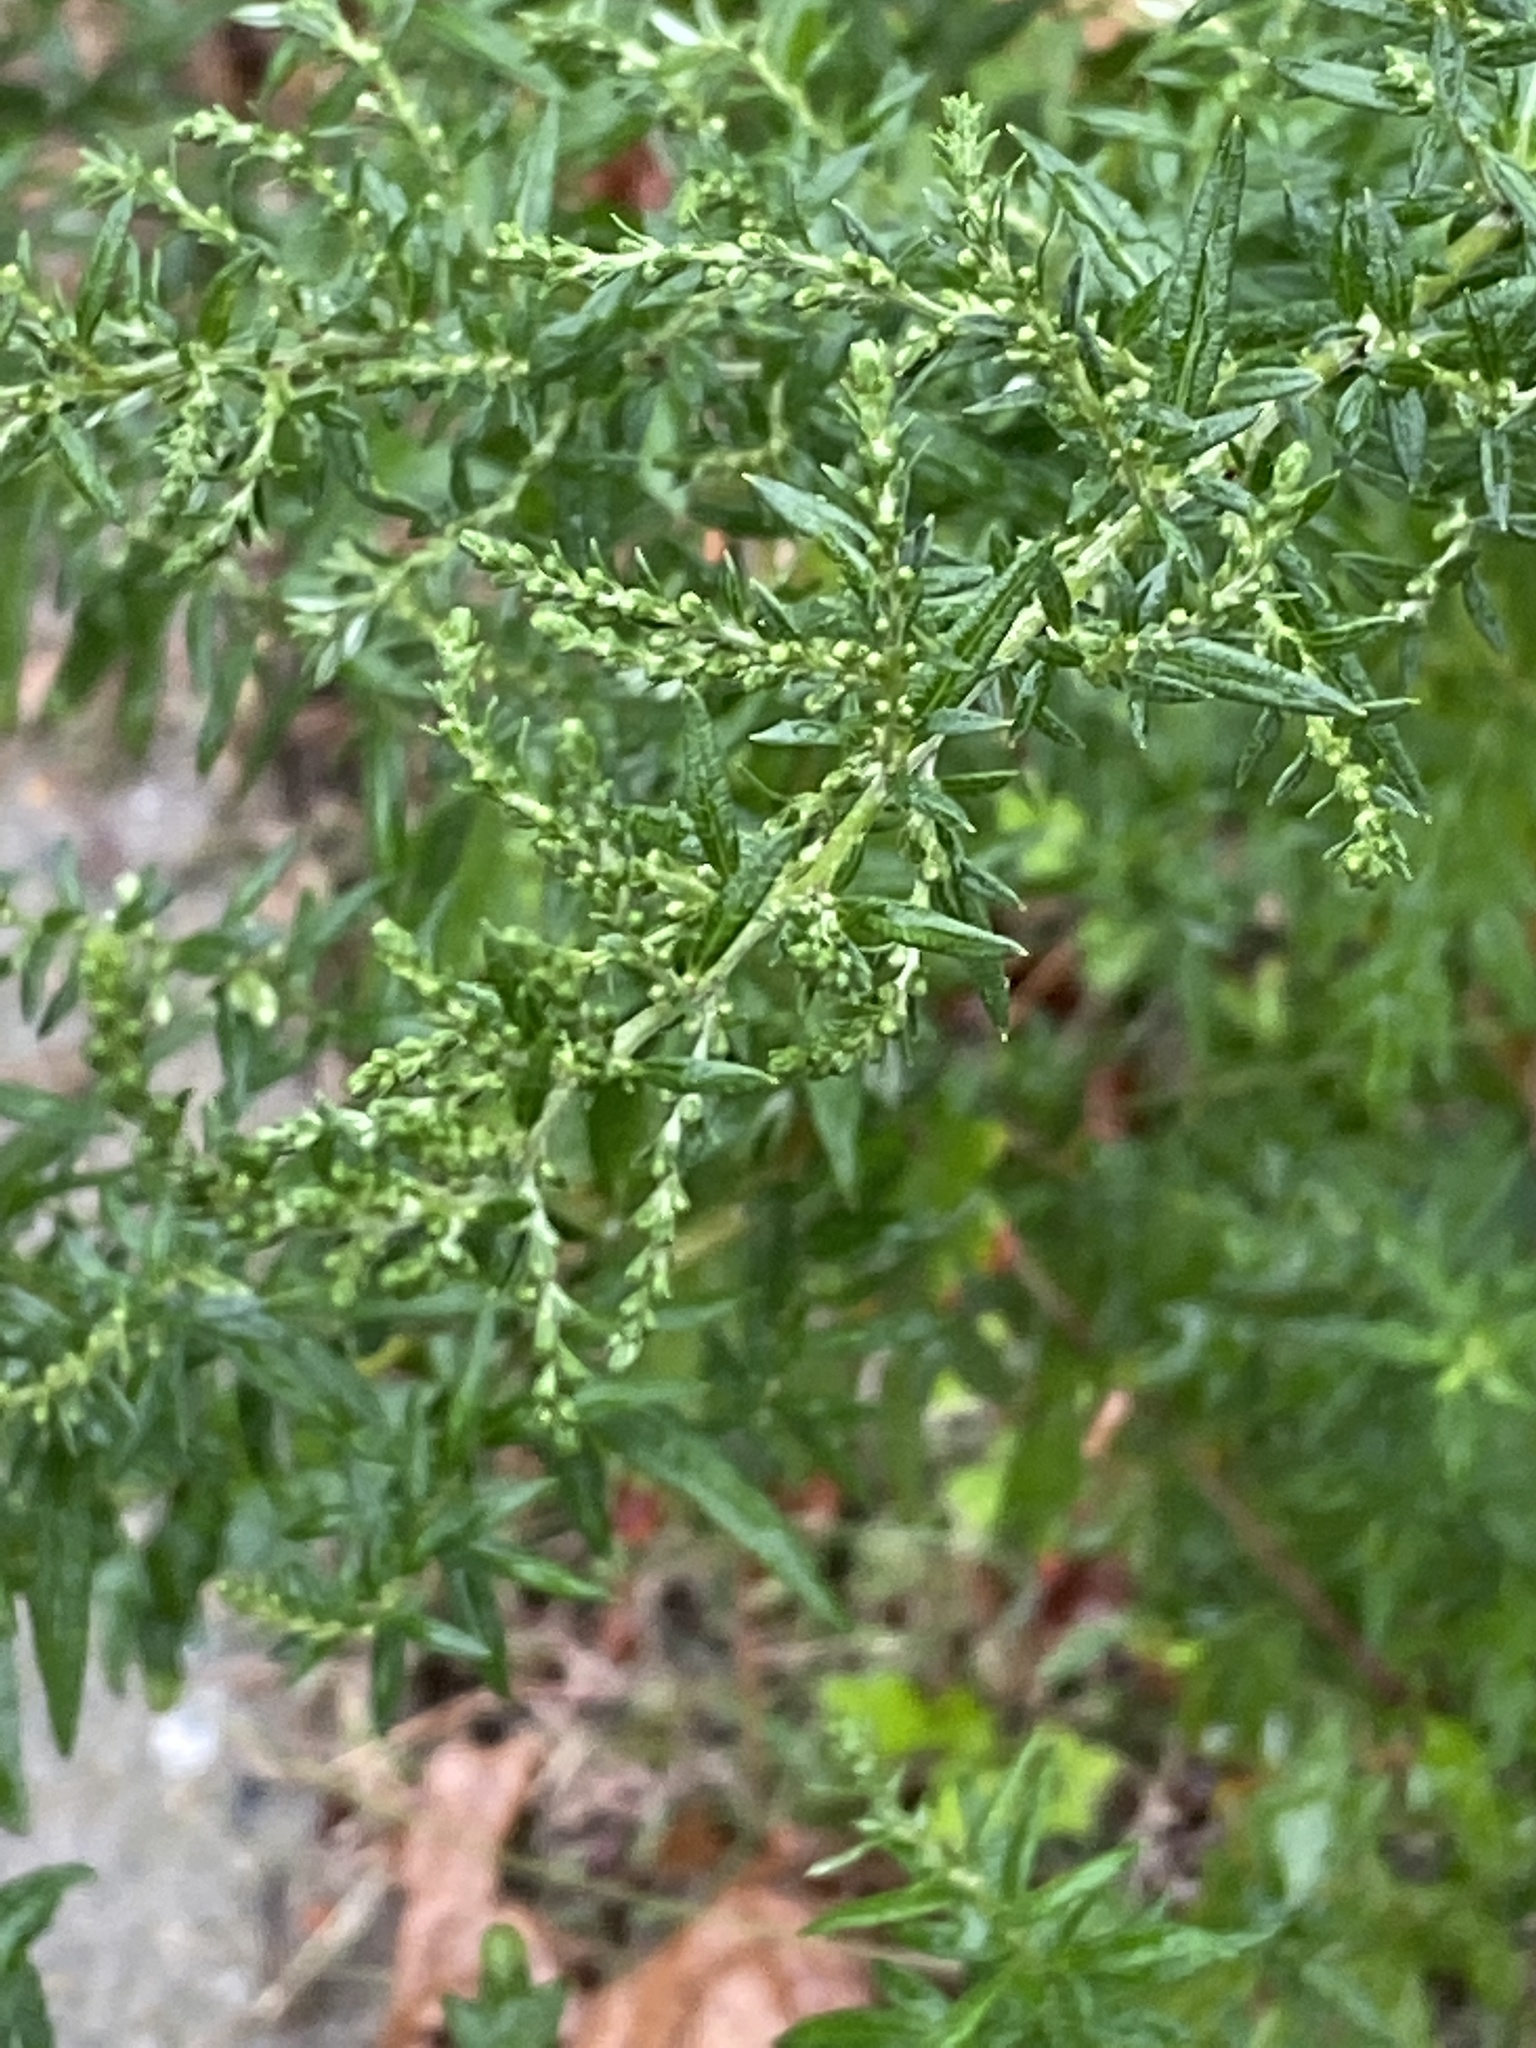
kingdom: Plantae
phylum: Tracheophyta
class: Magnoliopsida
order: Asterales
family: Asteraceae
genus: Artemisia
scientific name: Artemisia vulgaris
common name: Mugwort
